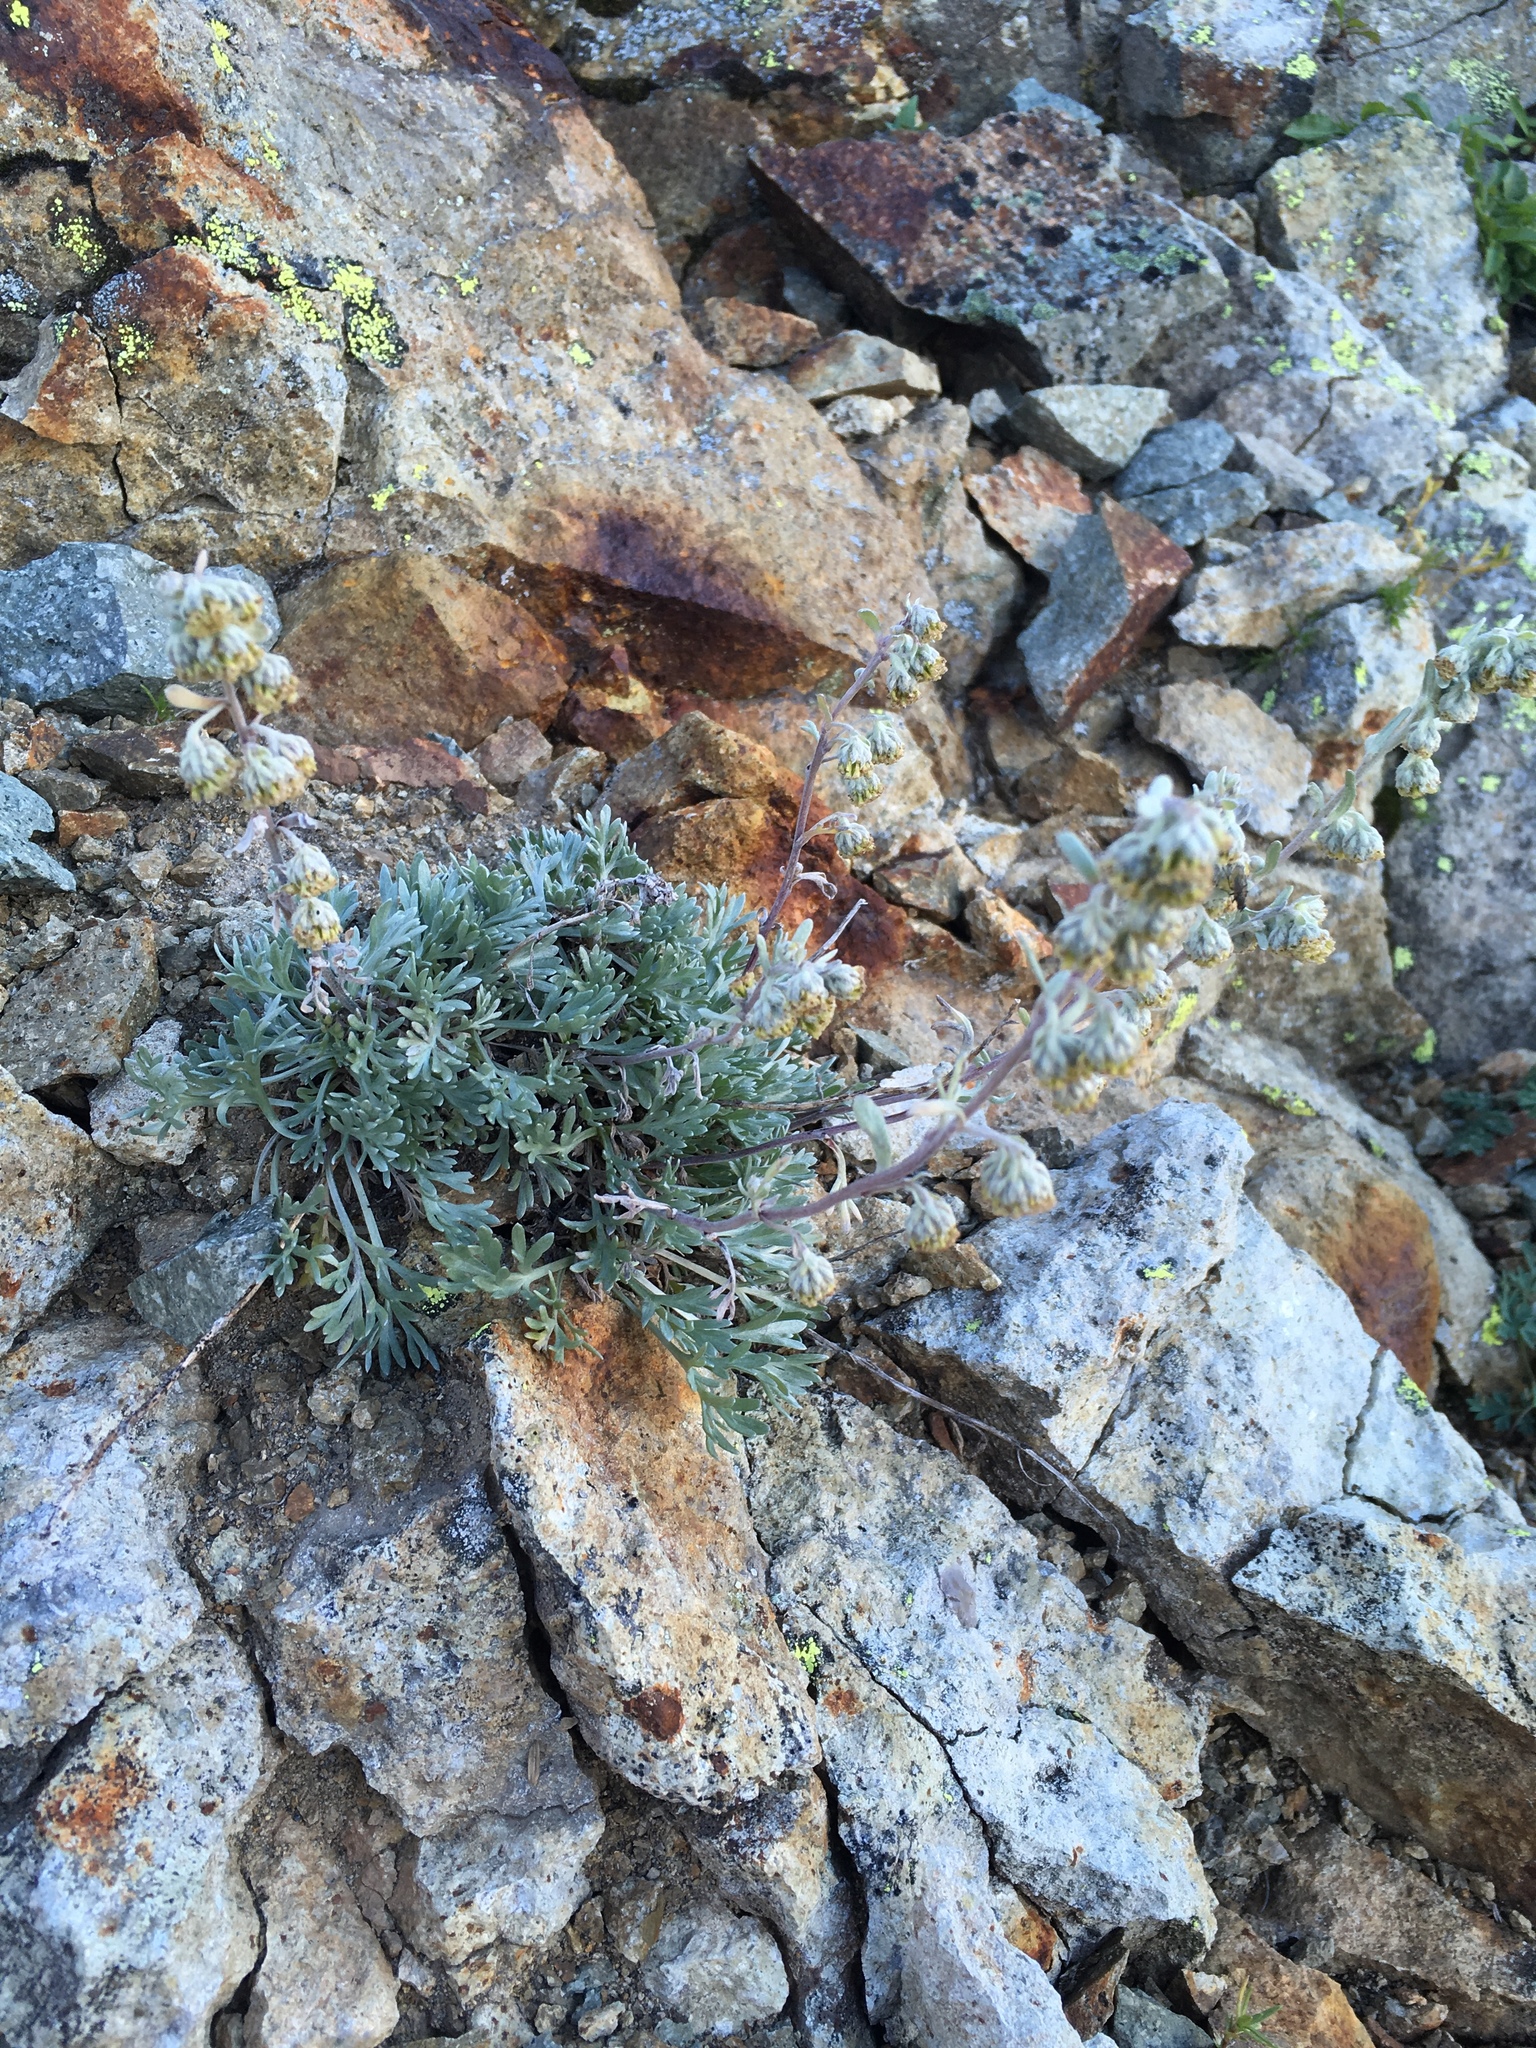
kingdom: Plantae
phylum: Tracheophyta
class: Magnoliopsida
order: Asterales
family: Asteraceae
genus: Artemisia
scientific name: Artemisia furcata
